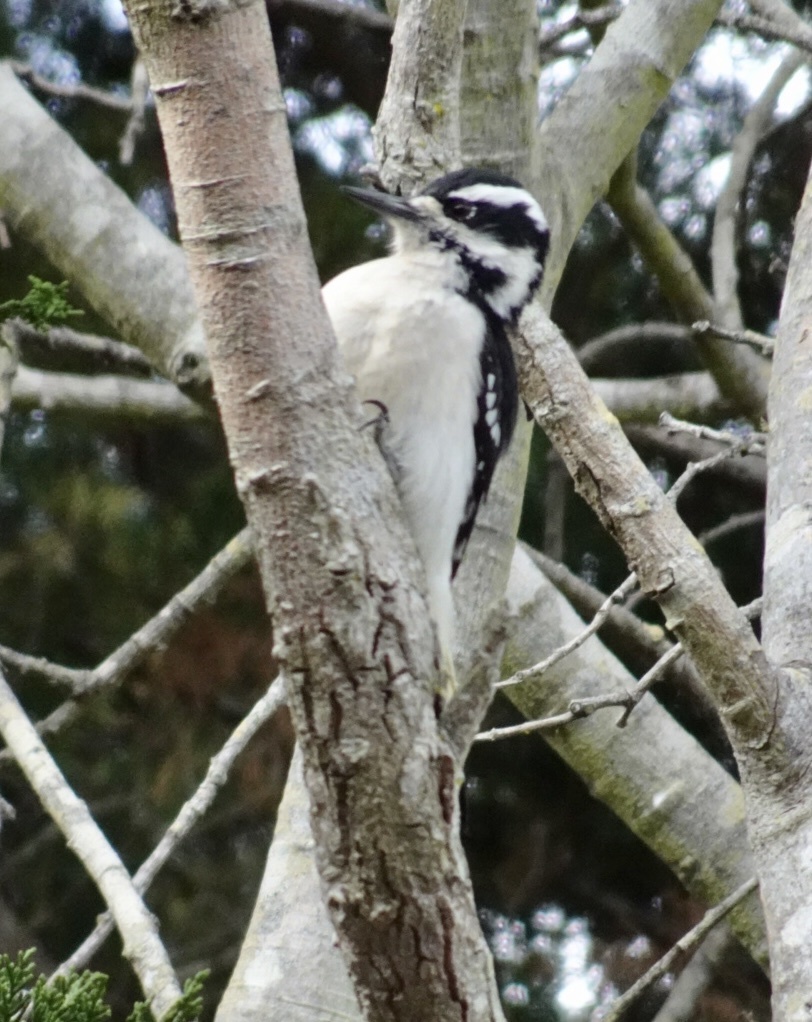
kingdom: Animalia
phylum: Chordata
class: Aves
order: Piciformes
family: Picidae
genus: Leuconotopicus
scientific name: Leuconotopicus villosus
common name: Hairy woodpecker
